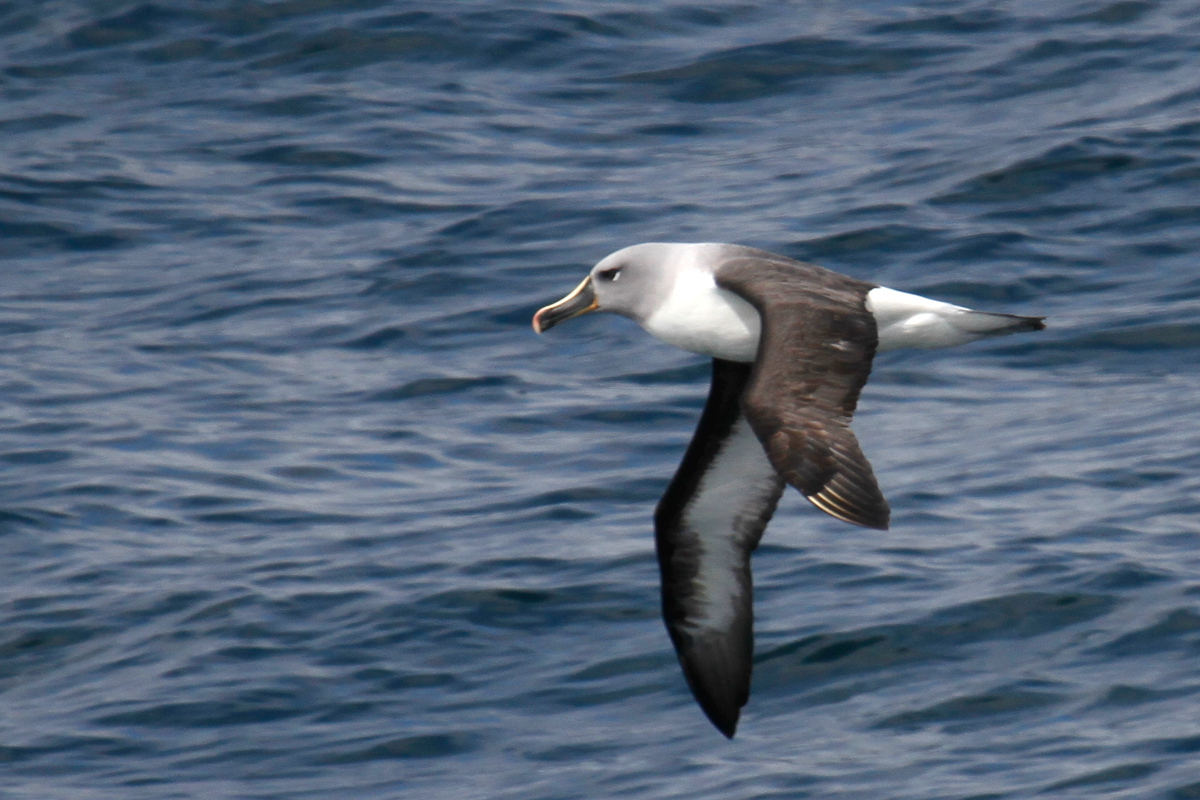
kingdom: Animalia
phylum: Chordata
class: Aves
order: Procellariiformes
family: Diomedeidae
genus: Thalassarche
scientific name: Thalassarche chrysostoma
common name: Grey-headed albatross
